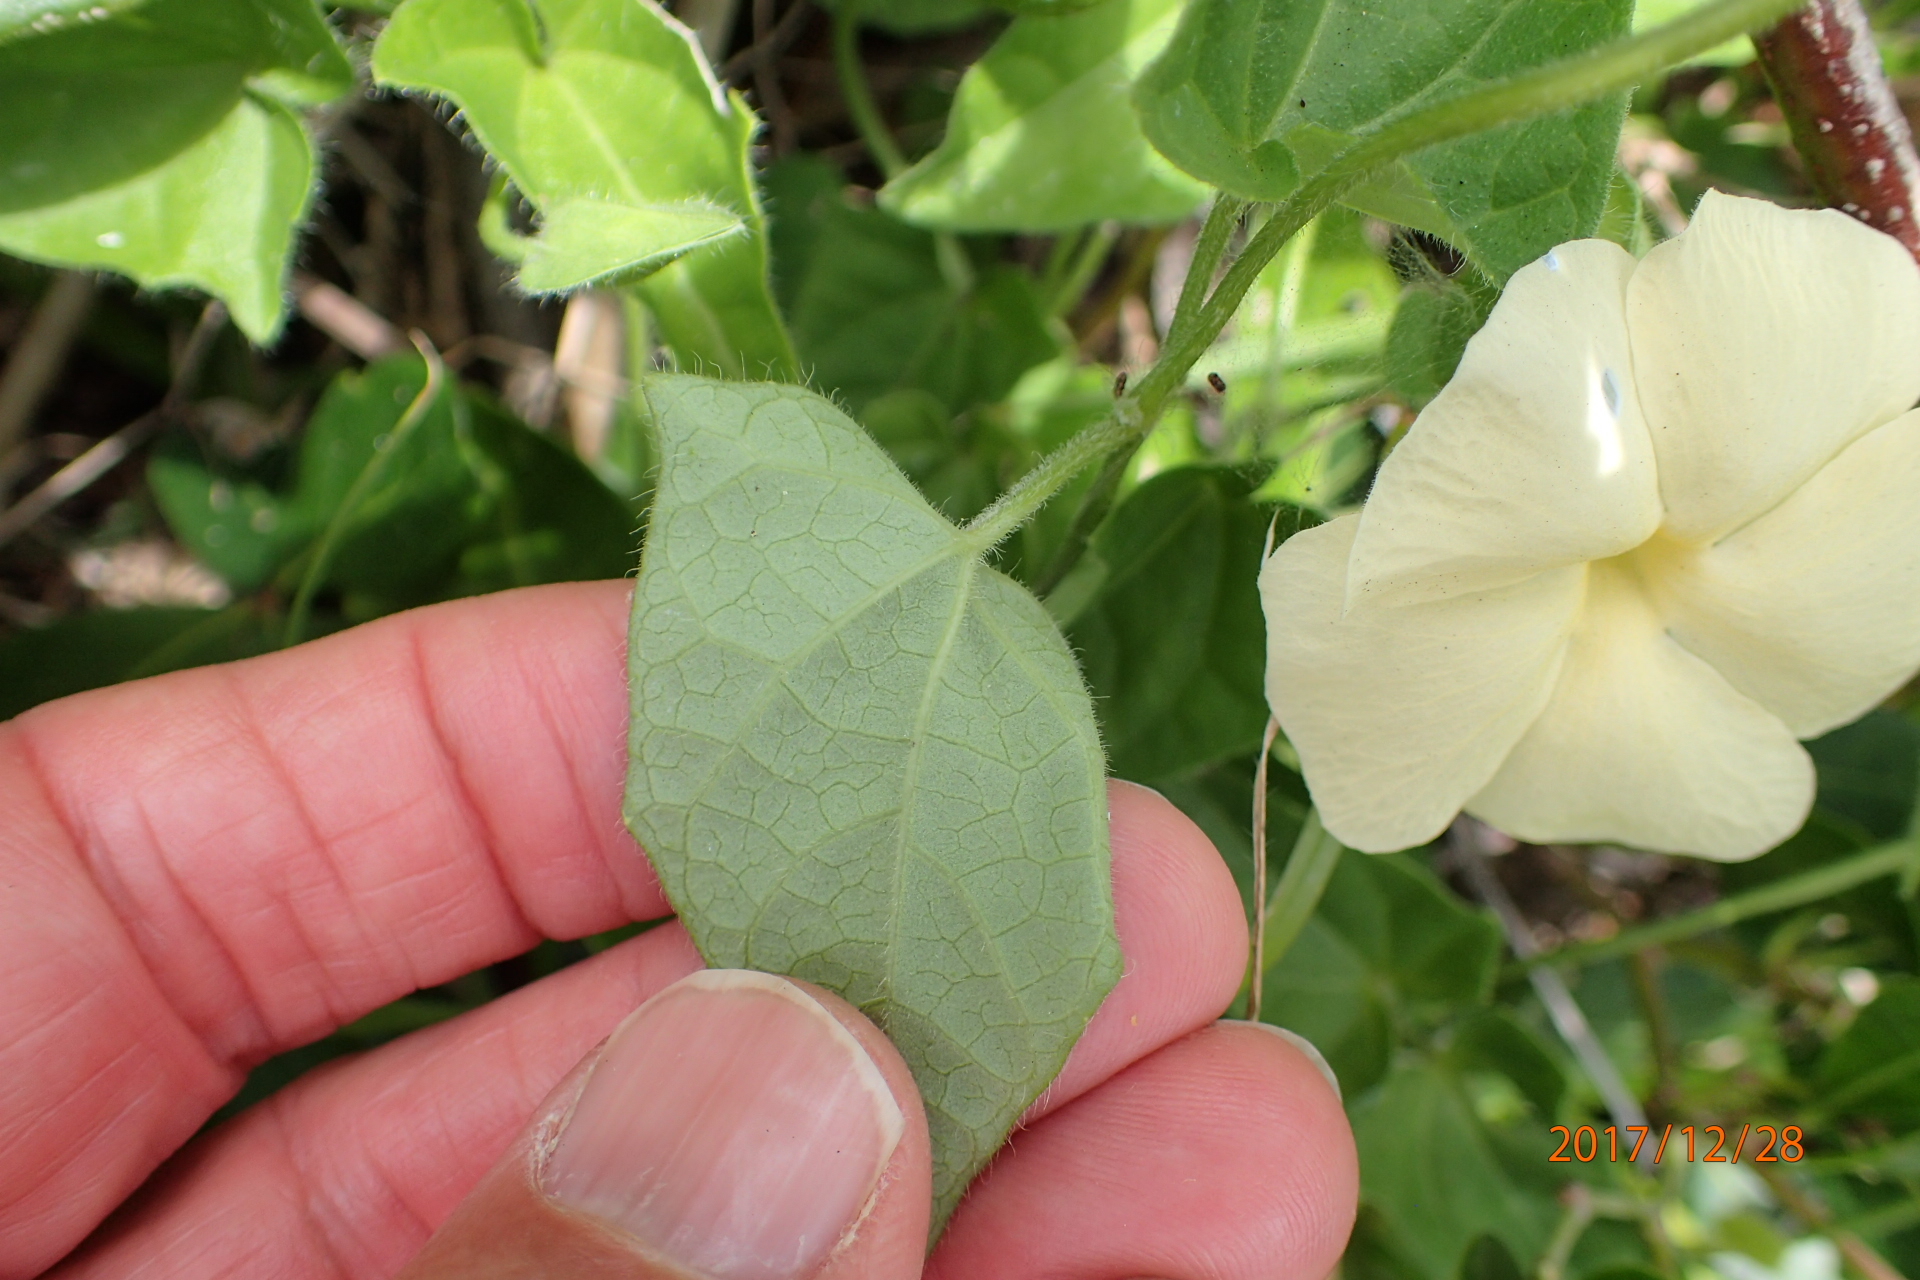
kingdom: Plantae
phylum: Tracheophyta
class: Magnoliopsida
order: Lamiales
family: Acanthaceae
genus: Thunbergia
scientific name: Thunbergia dregeana
